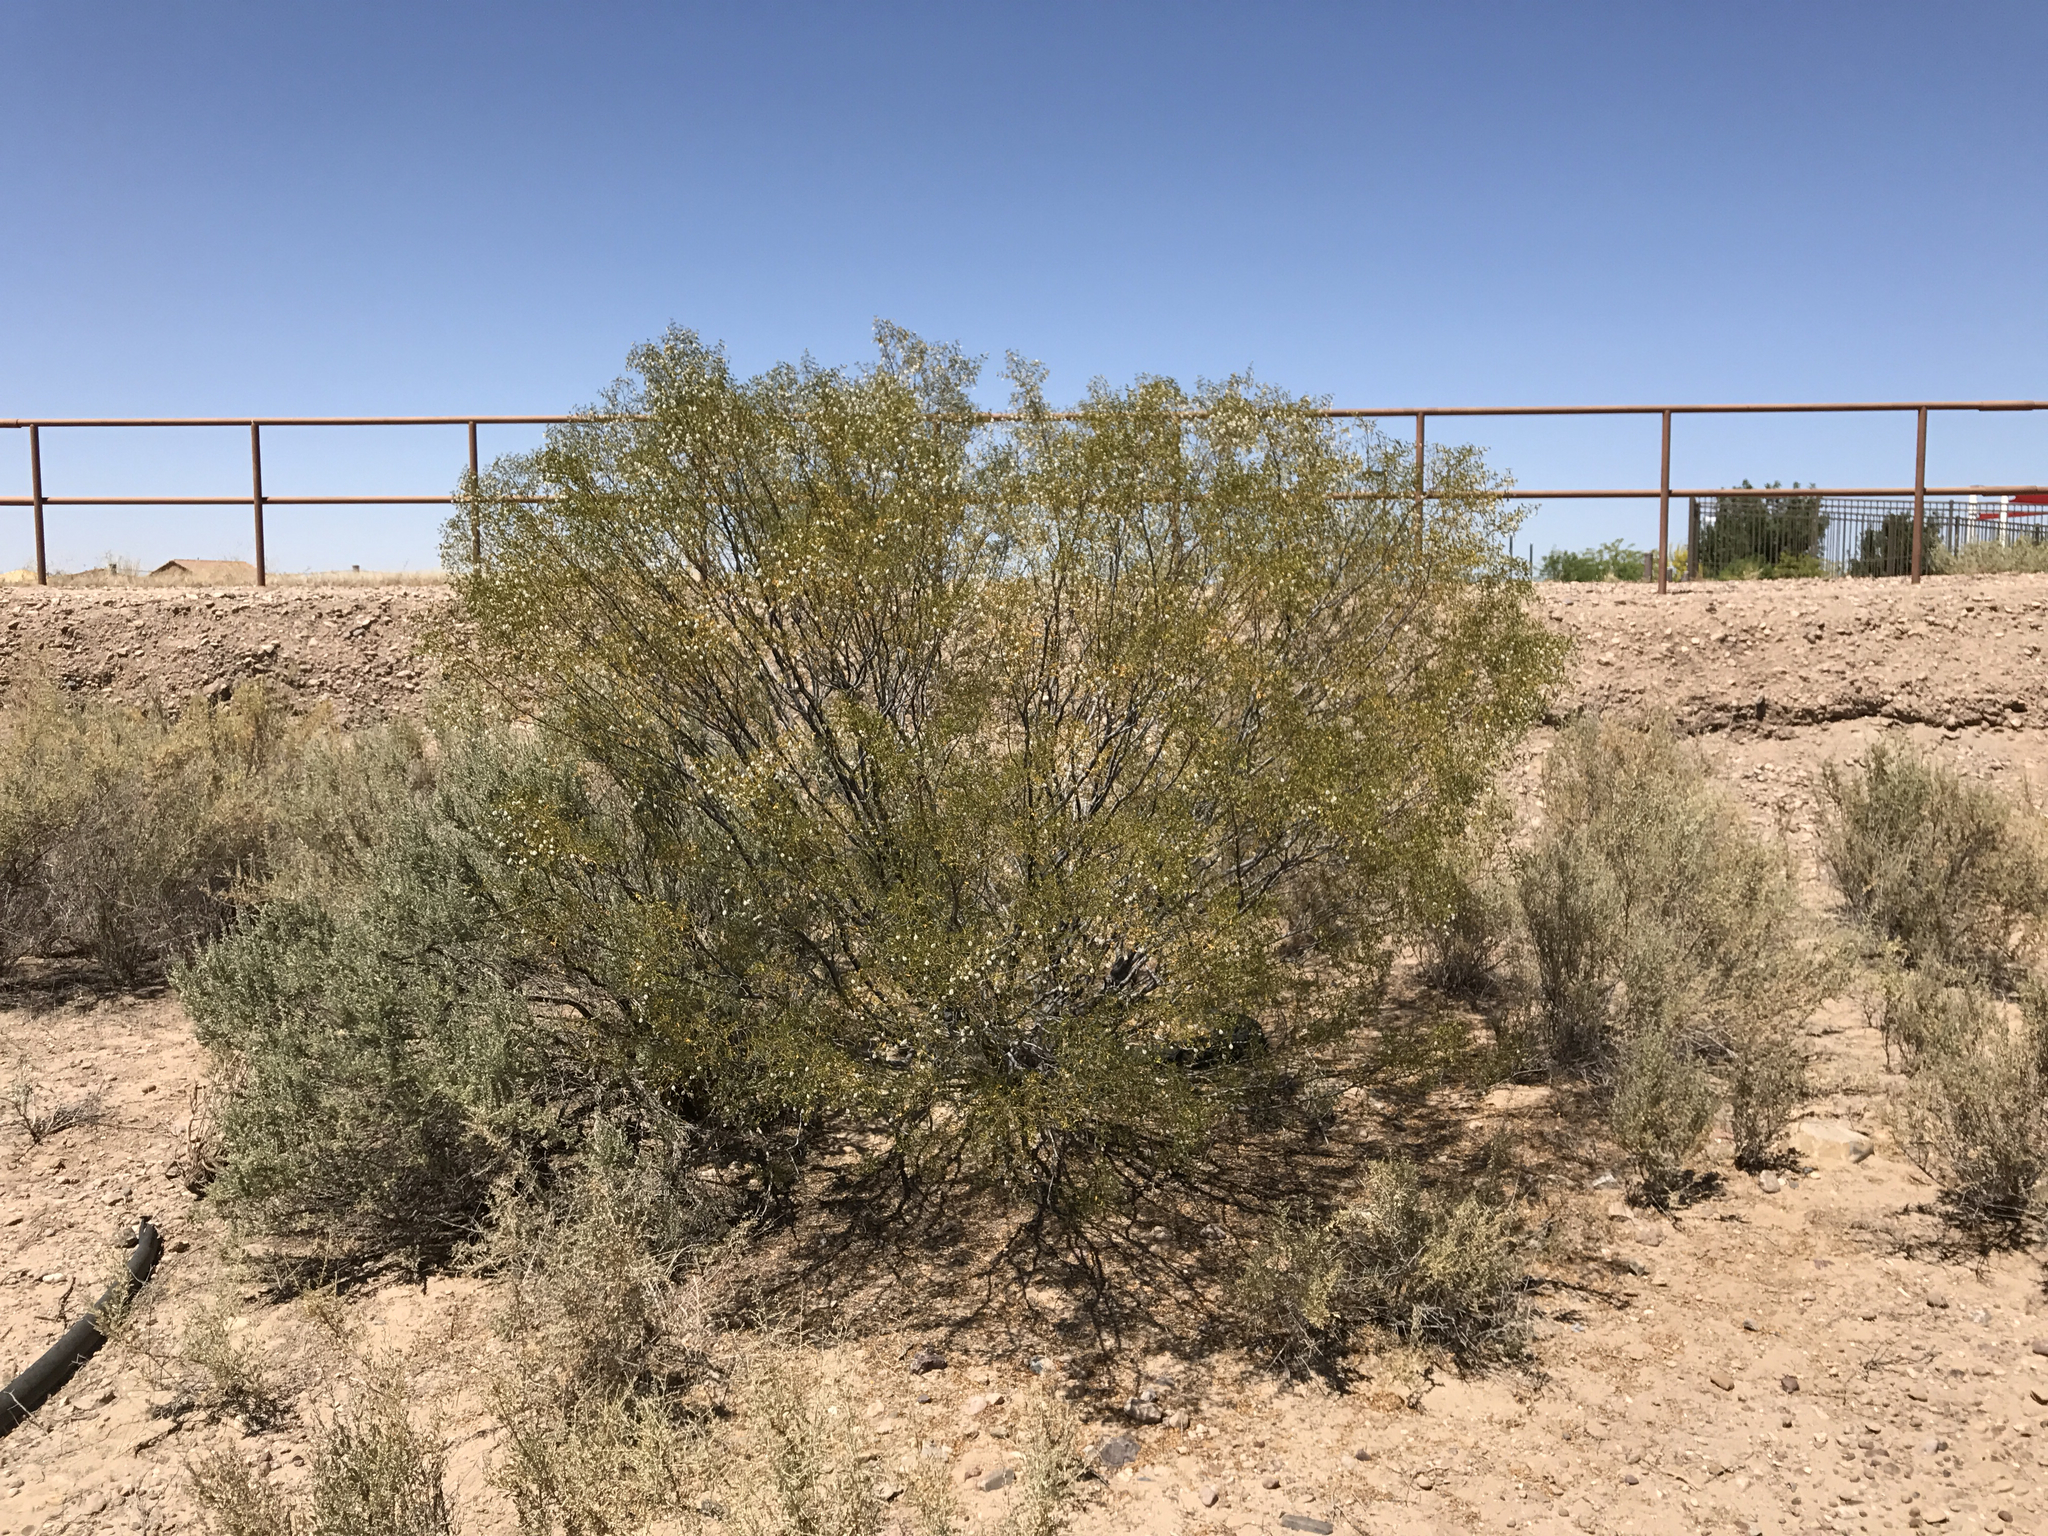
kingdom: Plantae
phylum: Tracheophyta
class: Magnoliopsida
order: Zygophyllales
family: Zygophyllaceae
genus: Larrea
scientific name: Larrea tridentata
